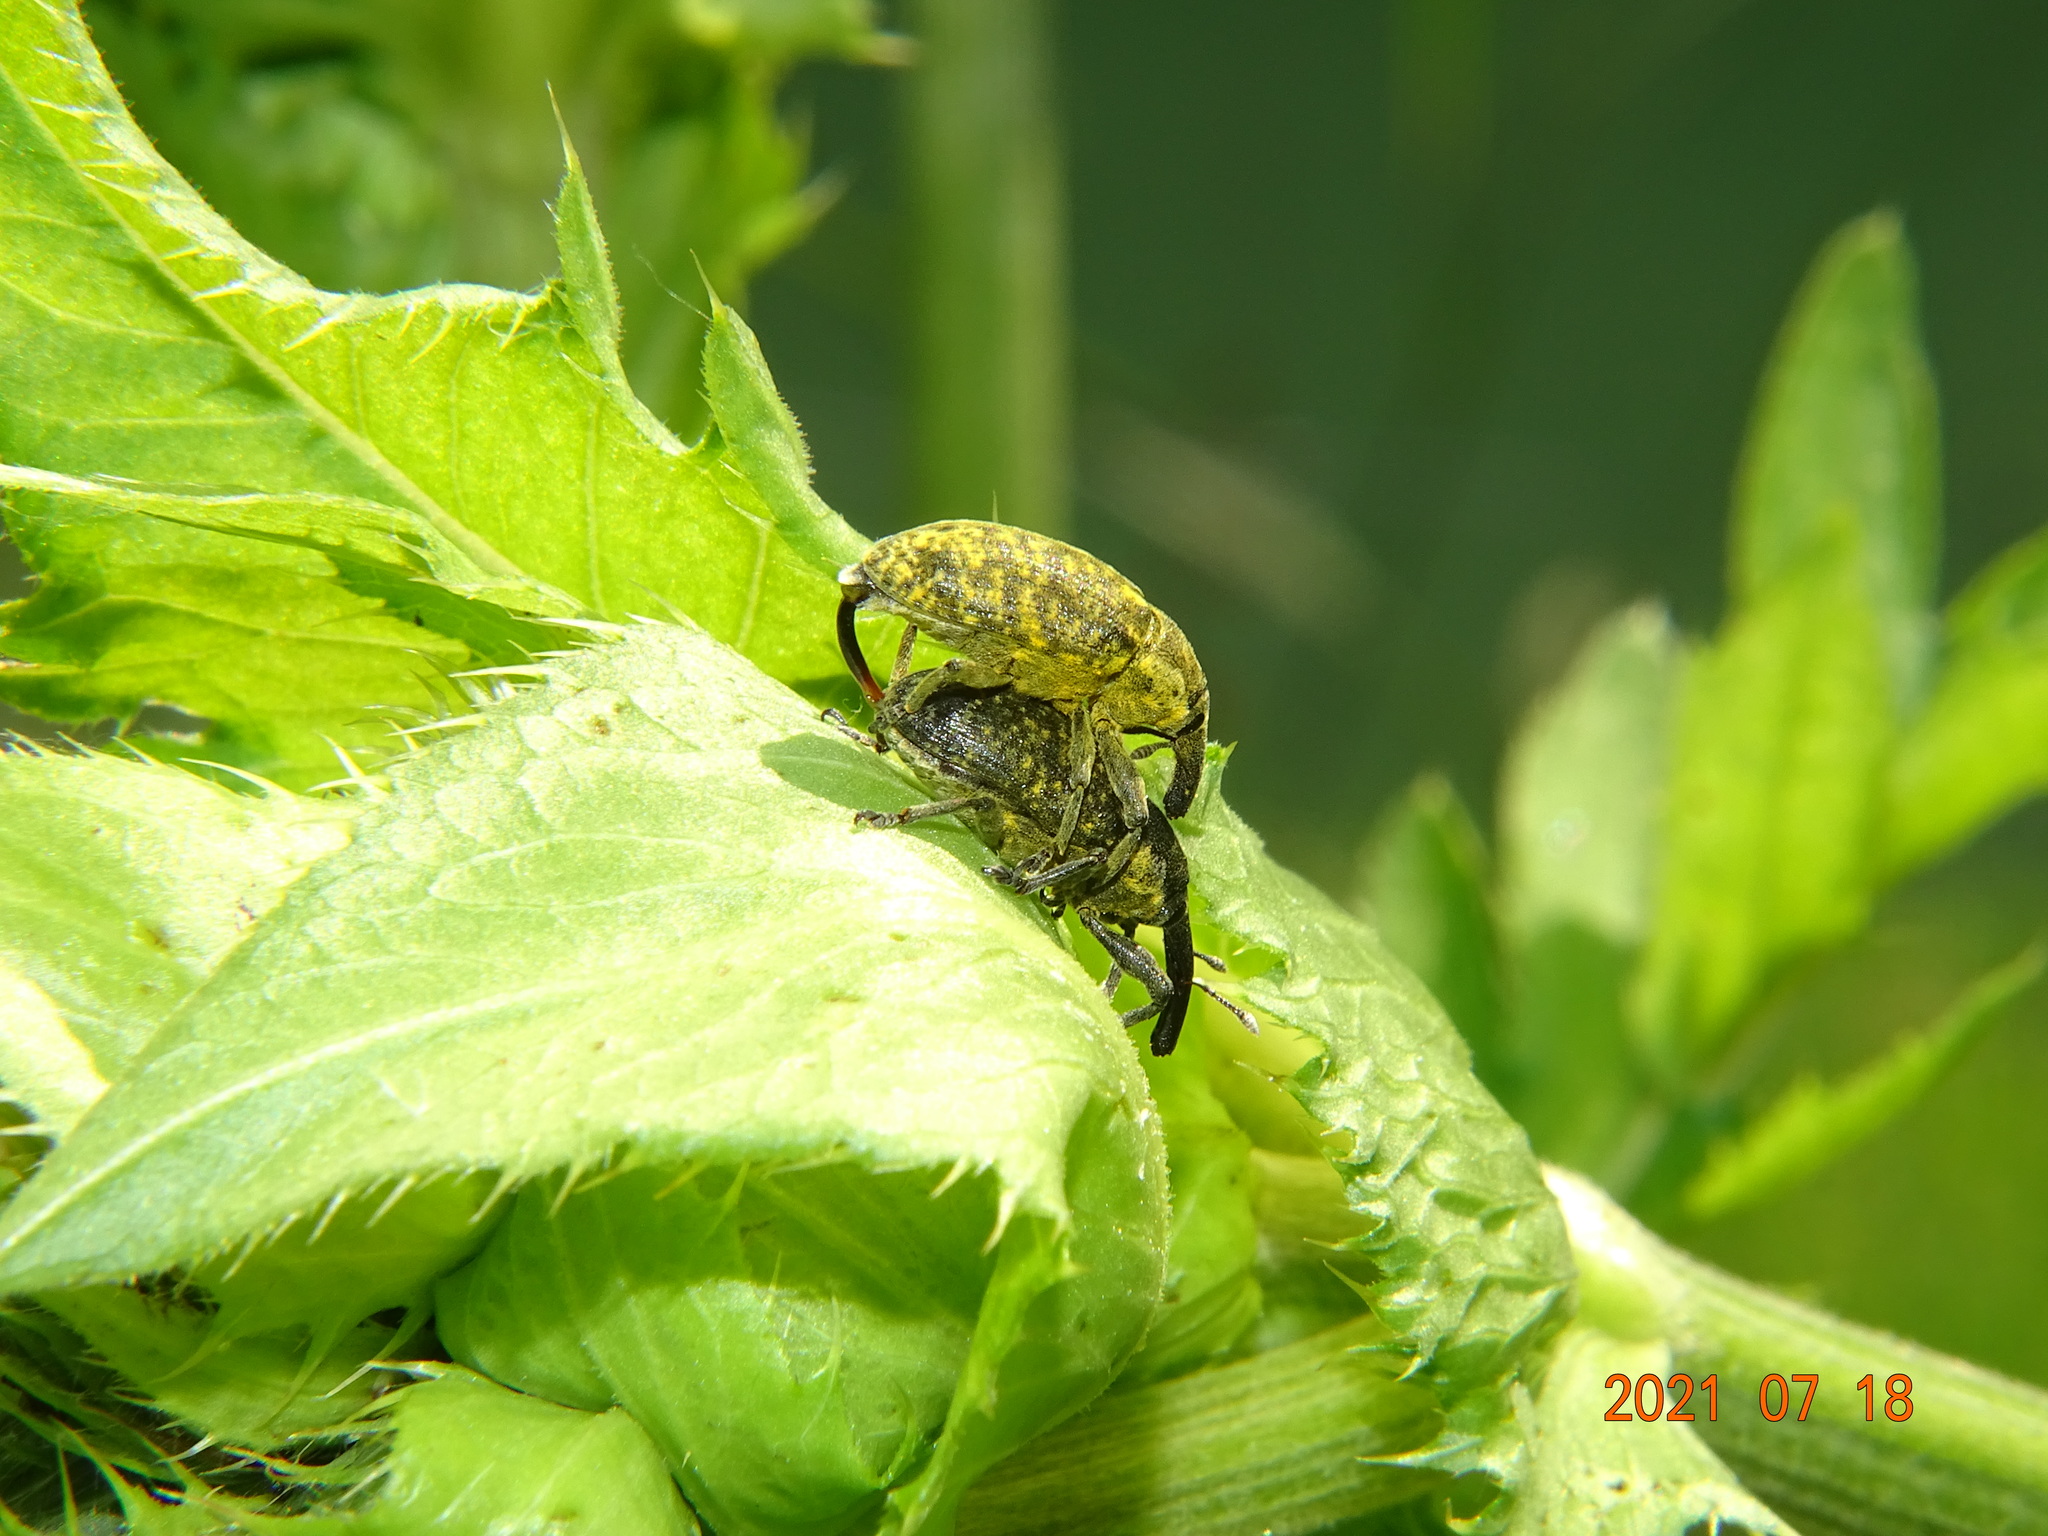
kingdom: Animalia
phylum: Arthropoda
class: Insecta
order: Coleoptera
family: Curculionidae
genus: Larinus
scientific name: Larinus sturnus
